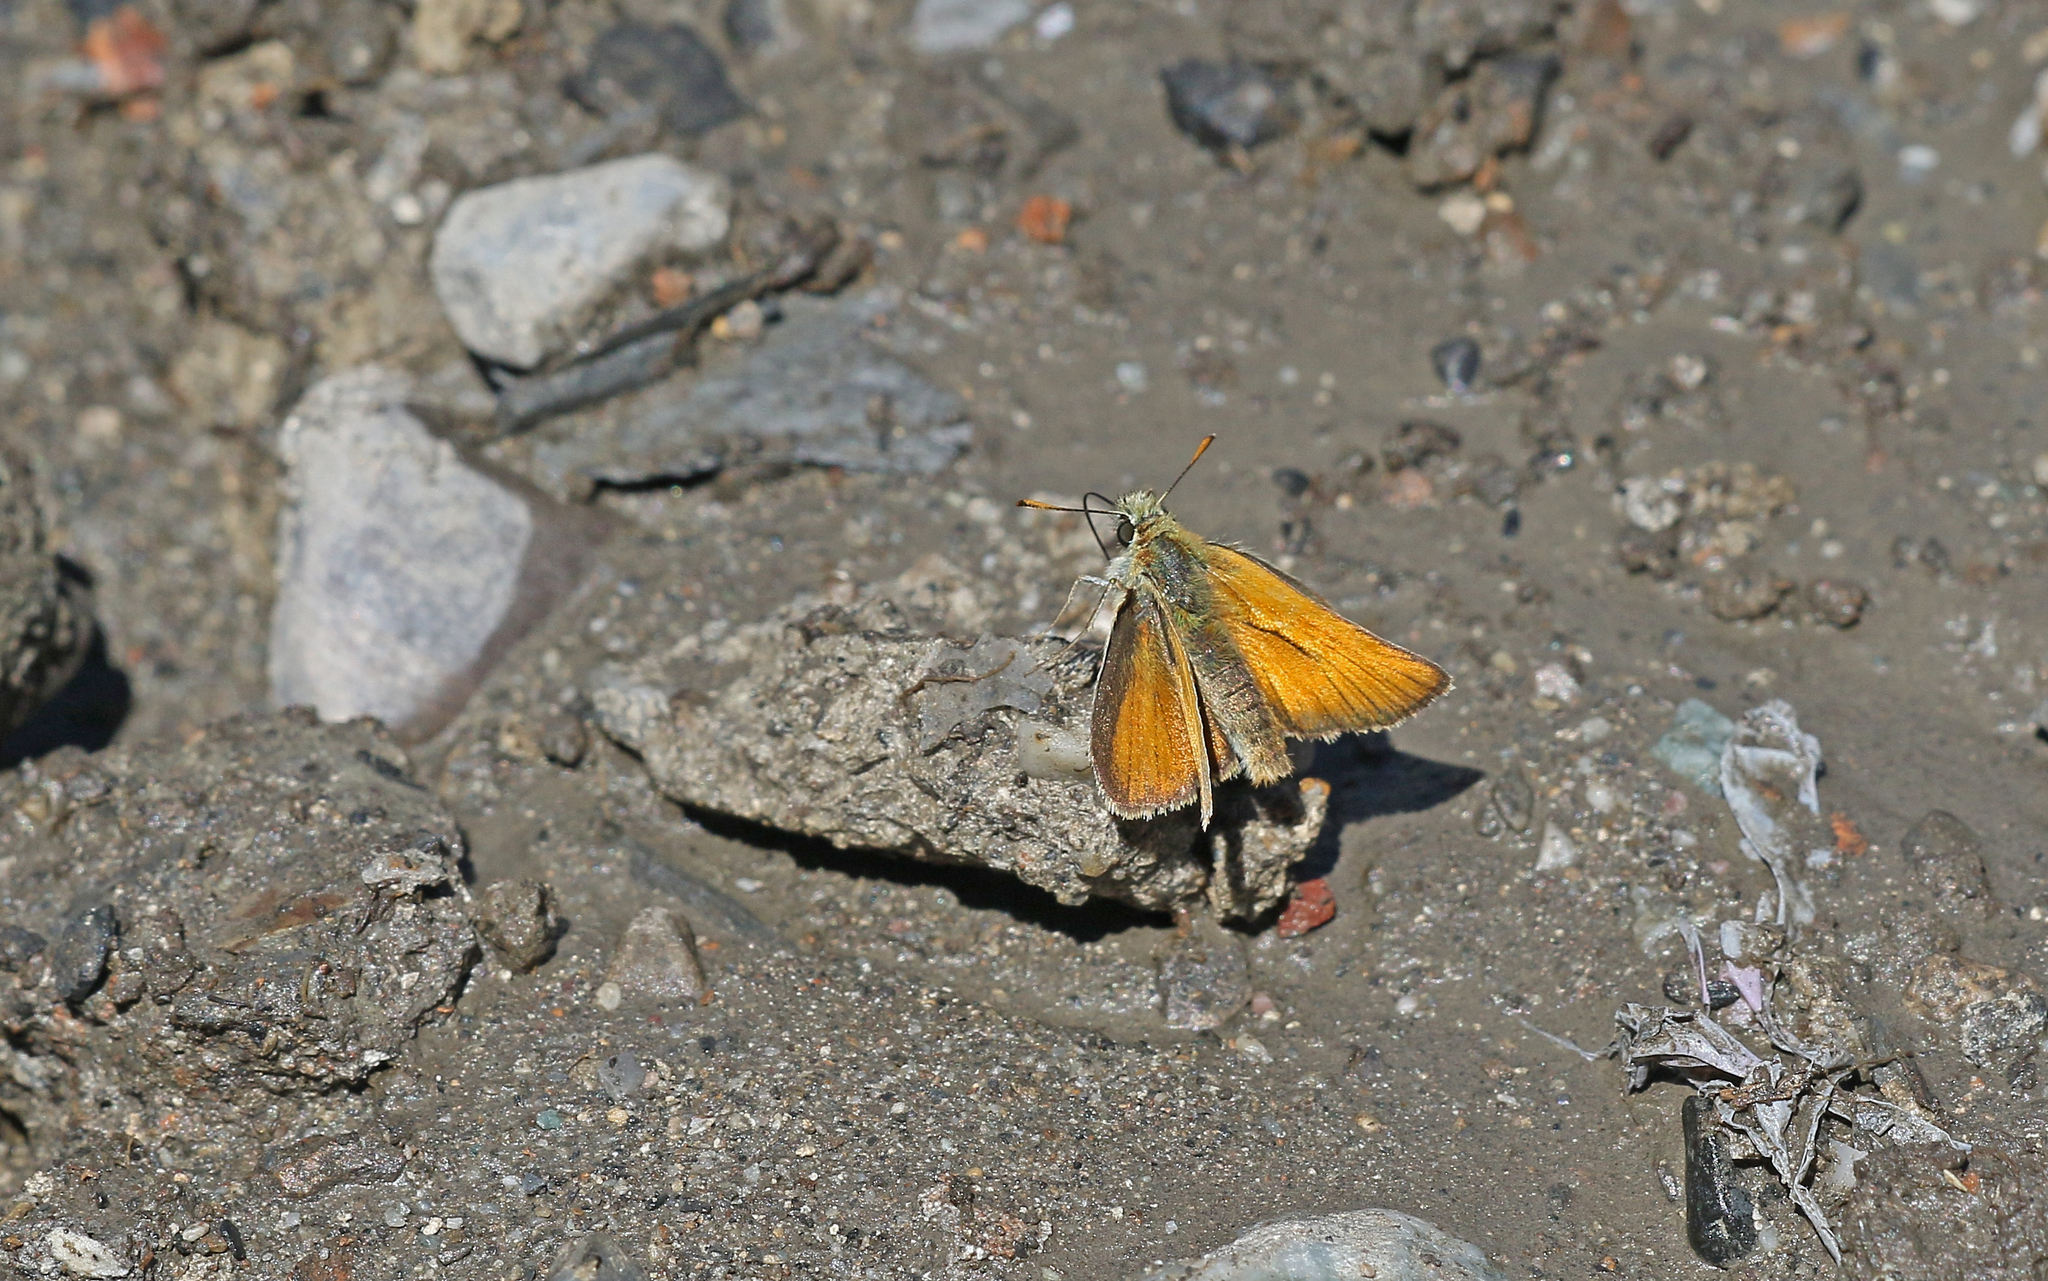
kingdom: Animalia
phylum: Arthropoda
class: Insecta
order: Lepidoptera
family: Hesperiidae
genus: Thymelicus
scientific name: Thymelicus sylvestris
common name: Small skipper
